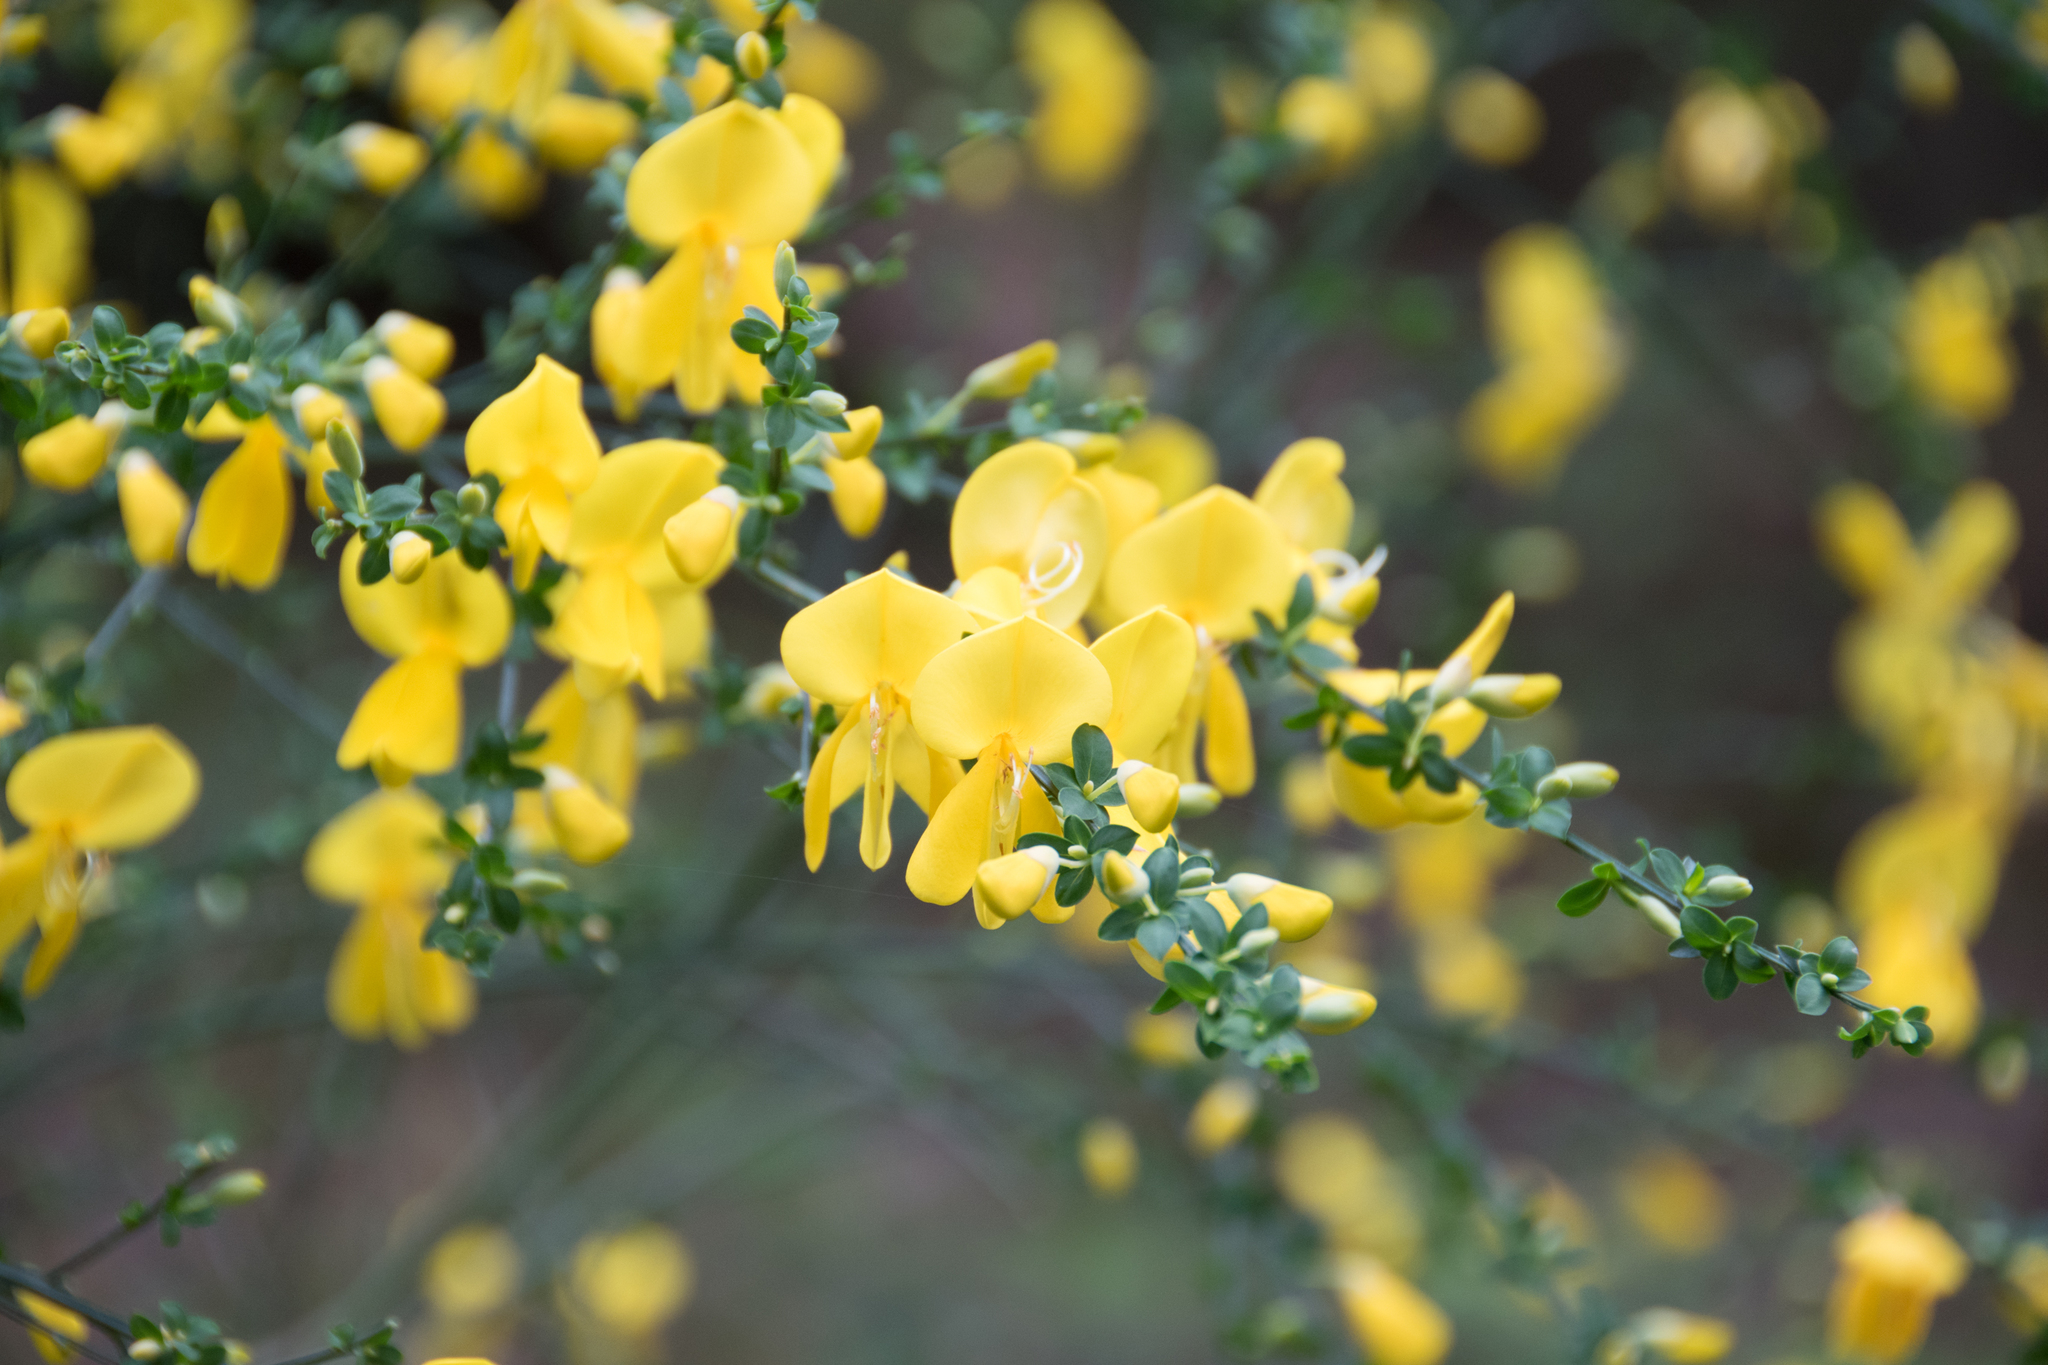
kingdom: Plantae
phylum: Tracheophyta
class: Magnoliopsida
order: Fabales
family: Fabaceae
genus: Cytisus
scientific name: Cytisus scoparius
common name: Scotch broom
